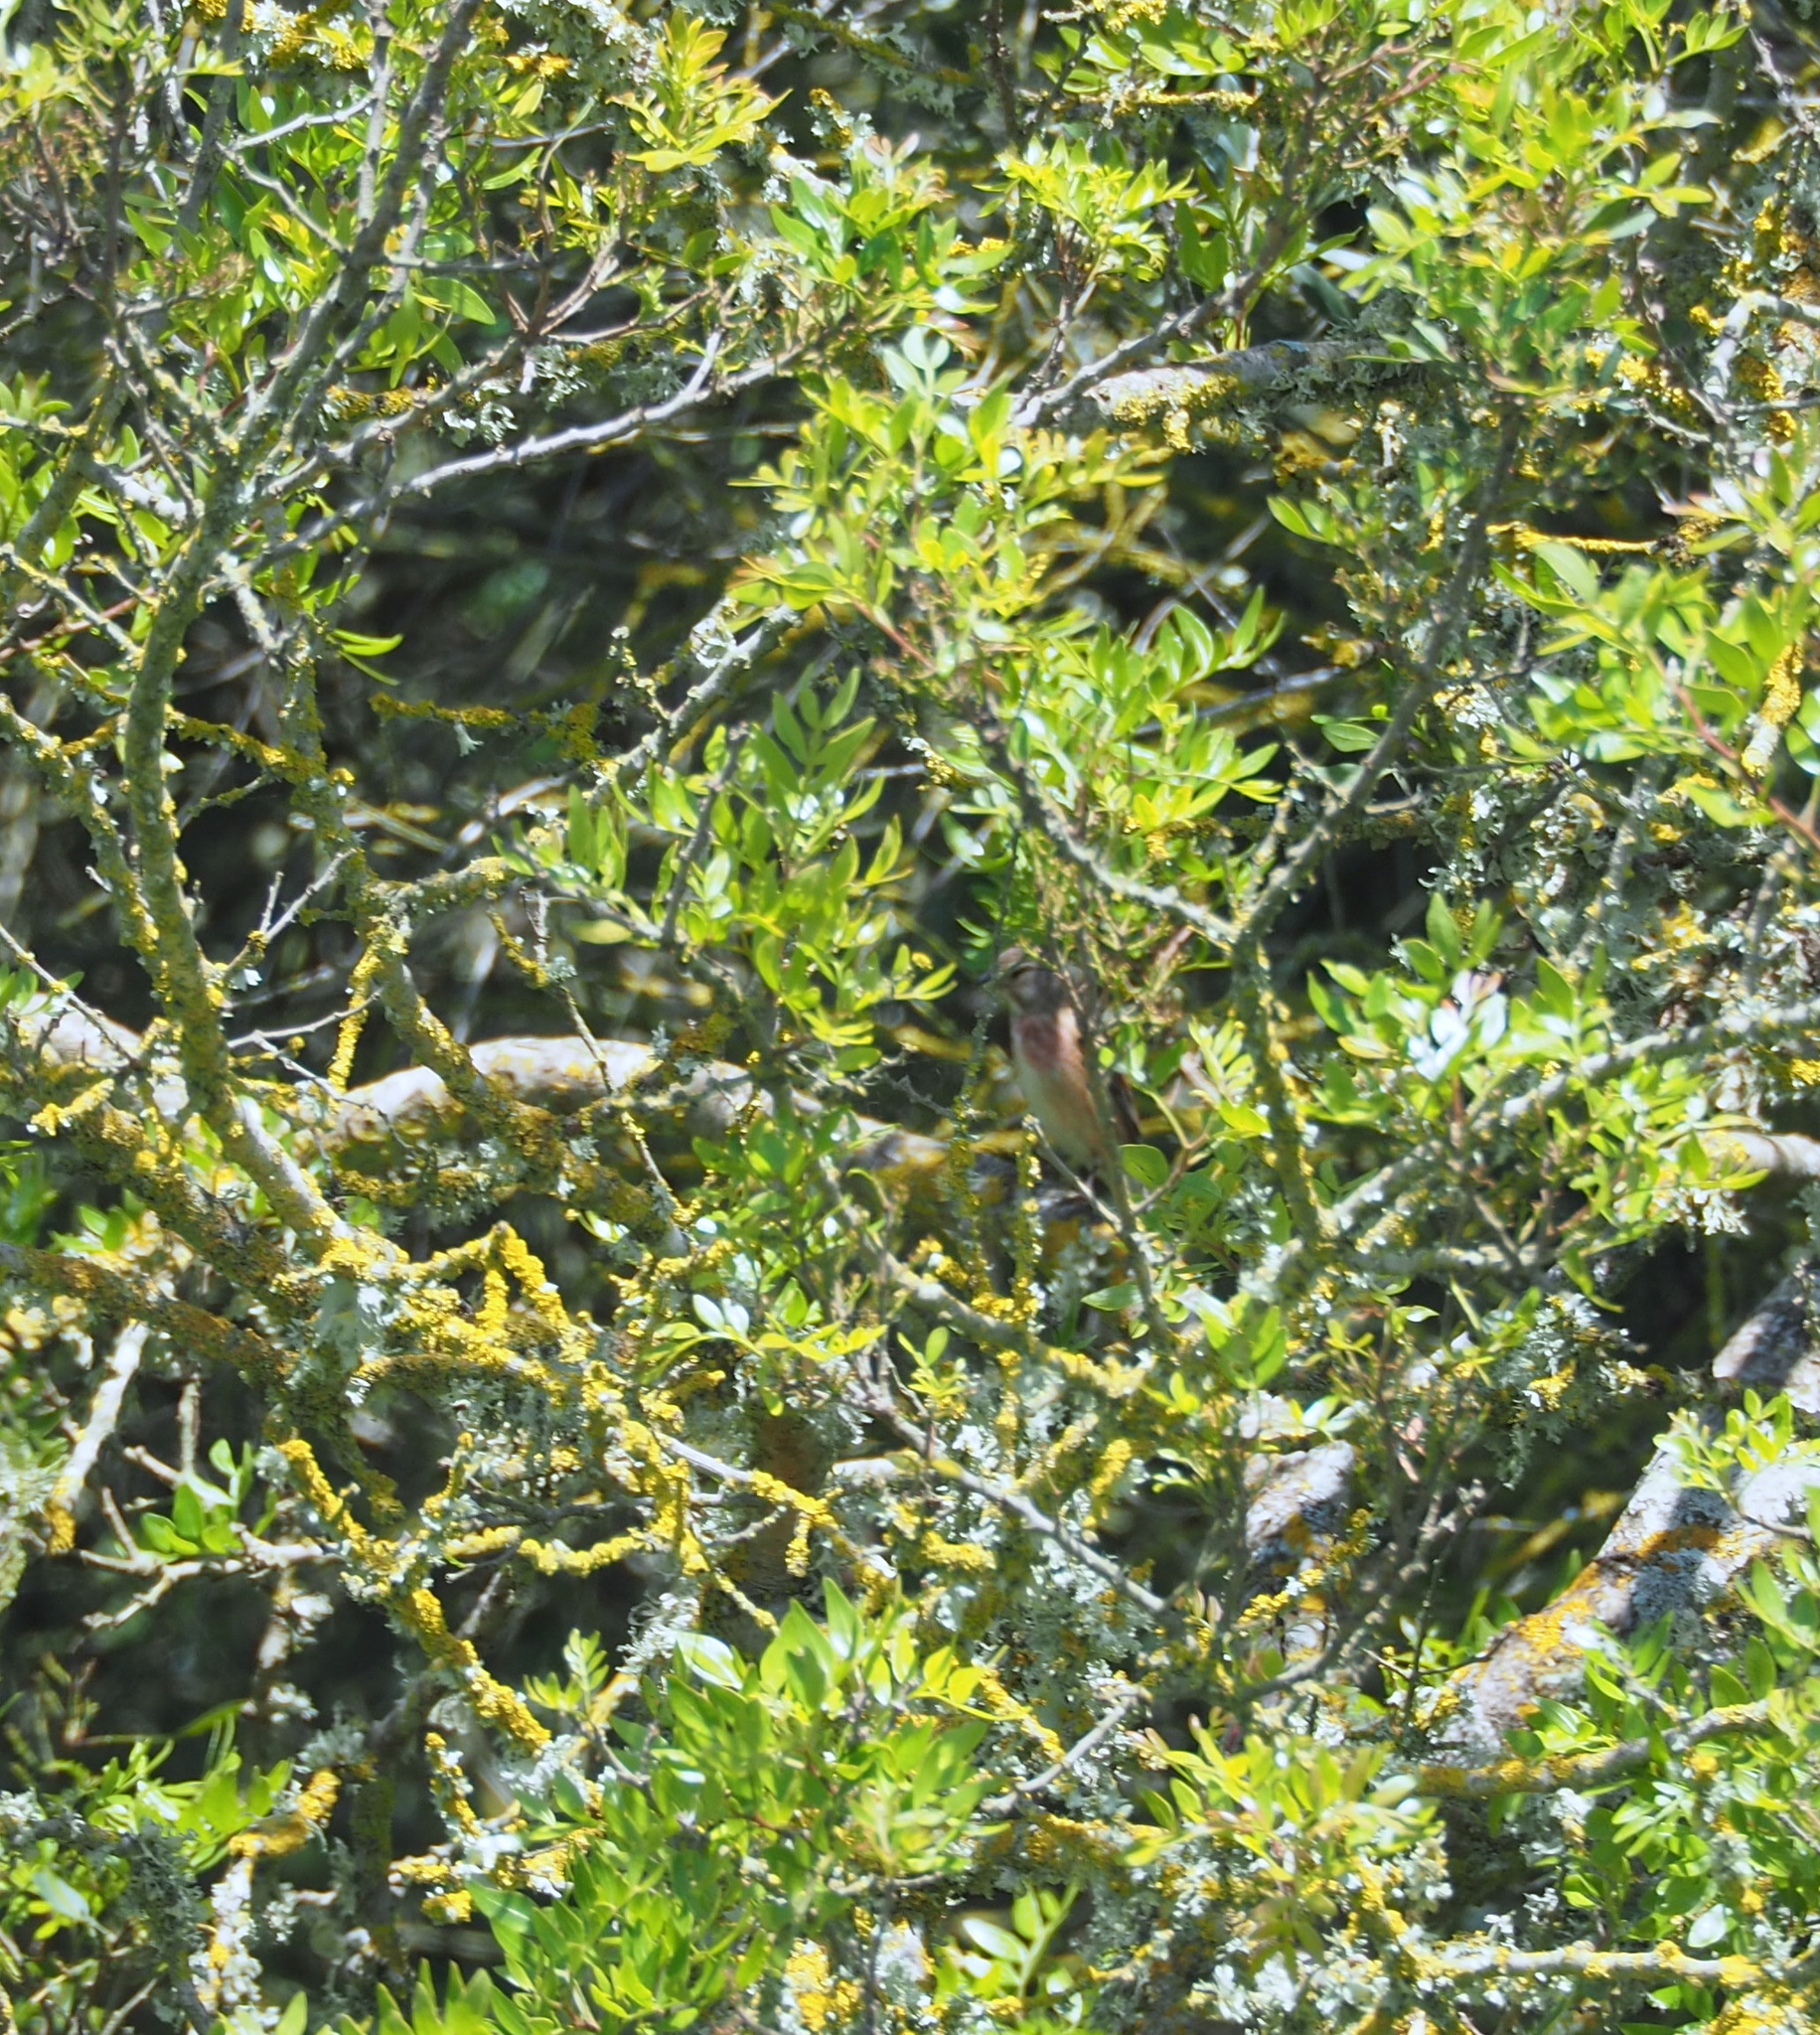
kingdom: Animalia
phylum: Chordata
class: Aves
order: Passeriformes
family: Fringillidae
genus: Linaria
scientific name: Linaria cannabina
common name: Common linnet
